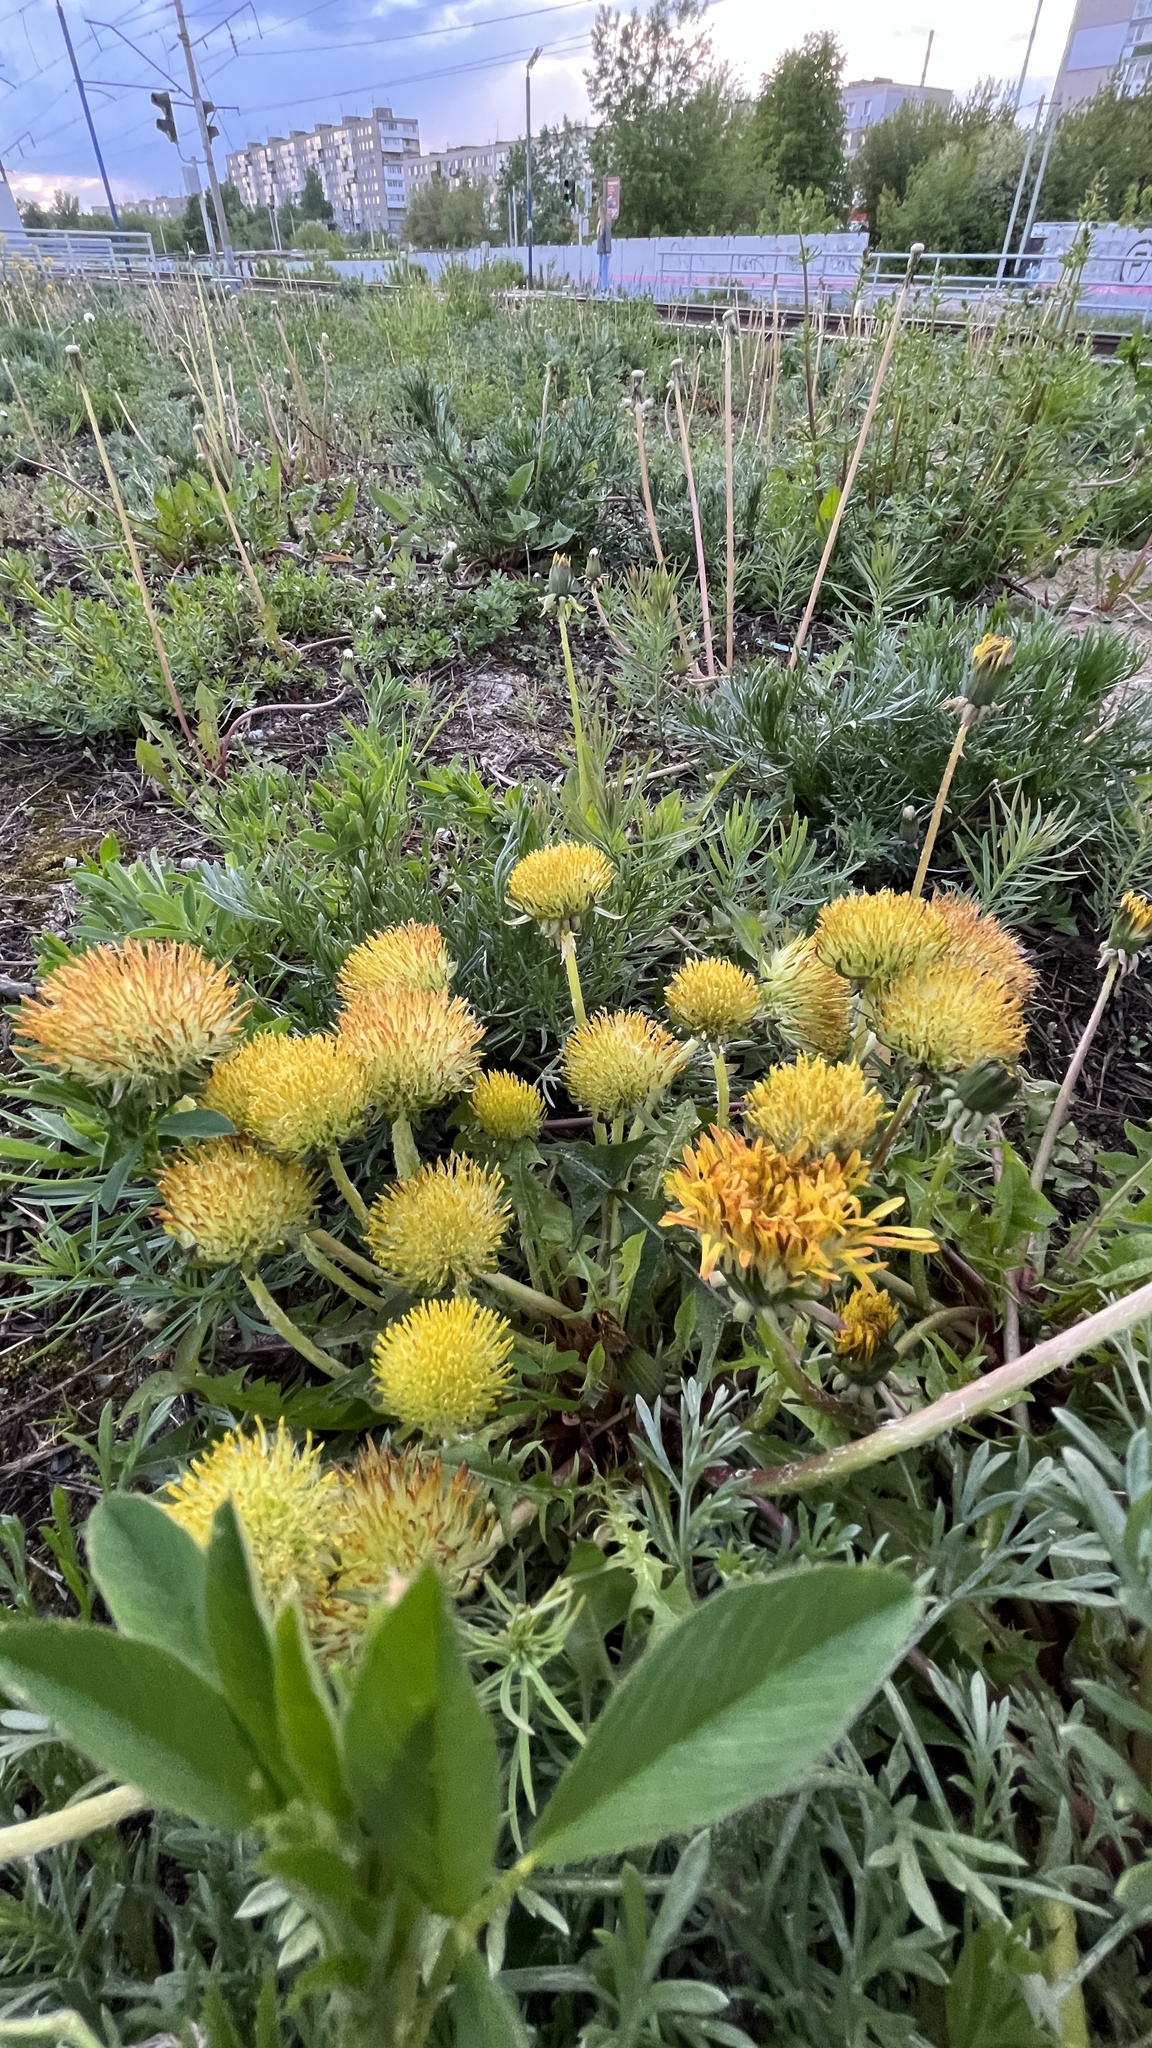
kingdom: Plantae
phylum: Tracheophyta
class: Magnoliopsida
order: Asterales
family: Asteraceae
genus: Taraxacum
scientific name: Taraxacum officinale
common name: Common dandelion
